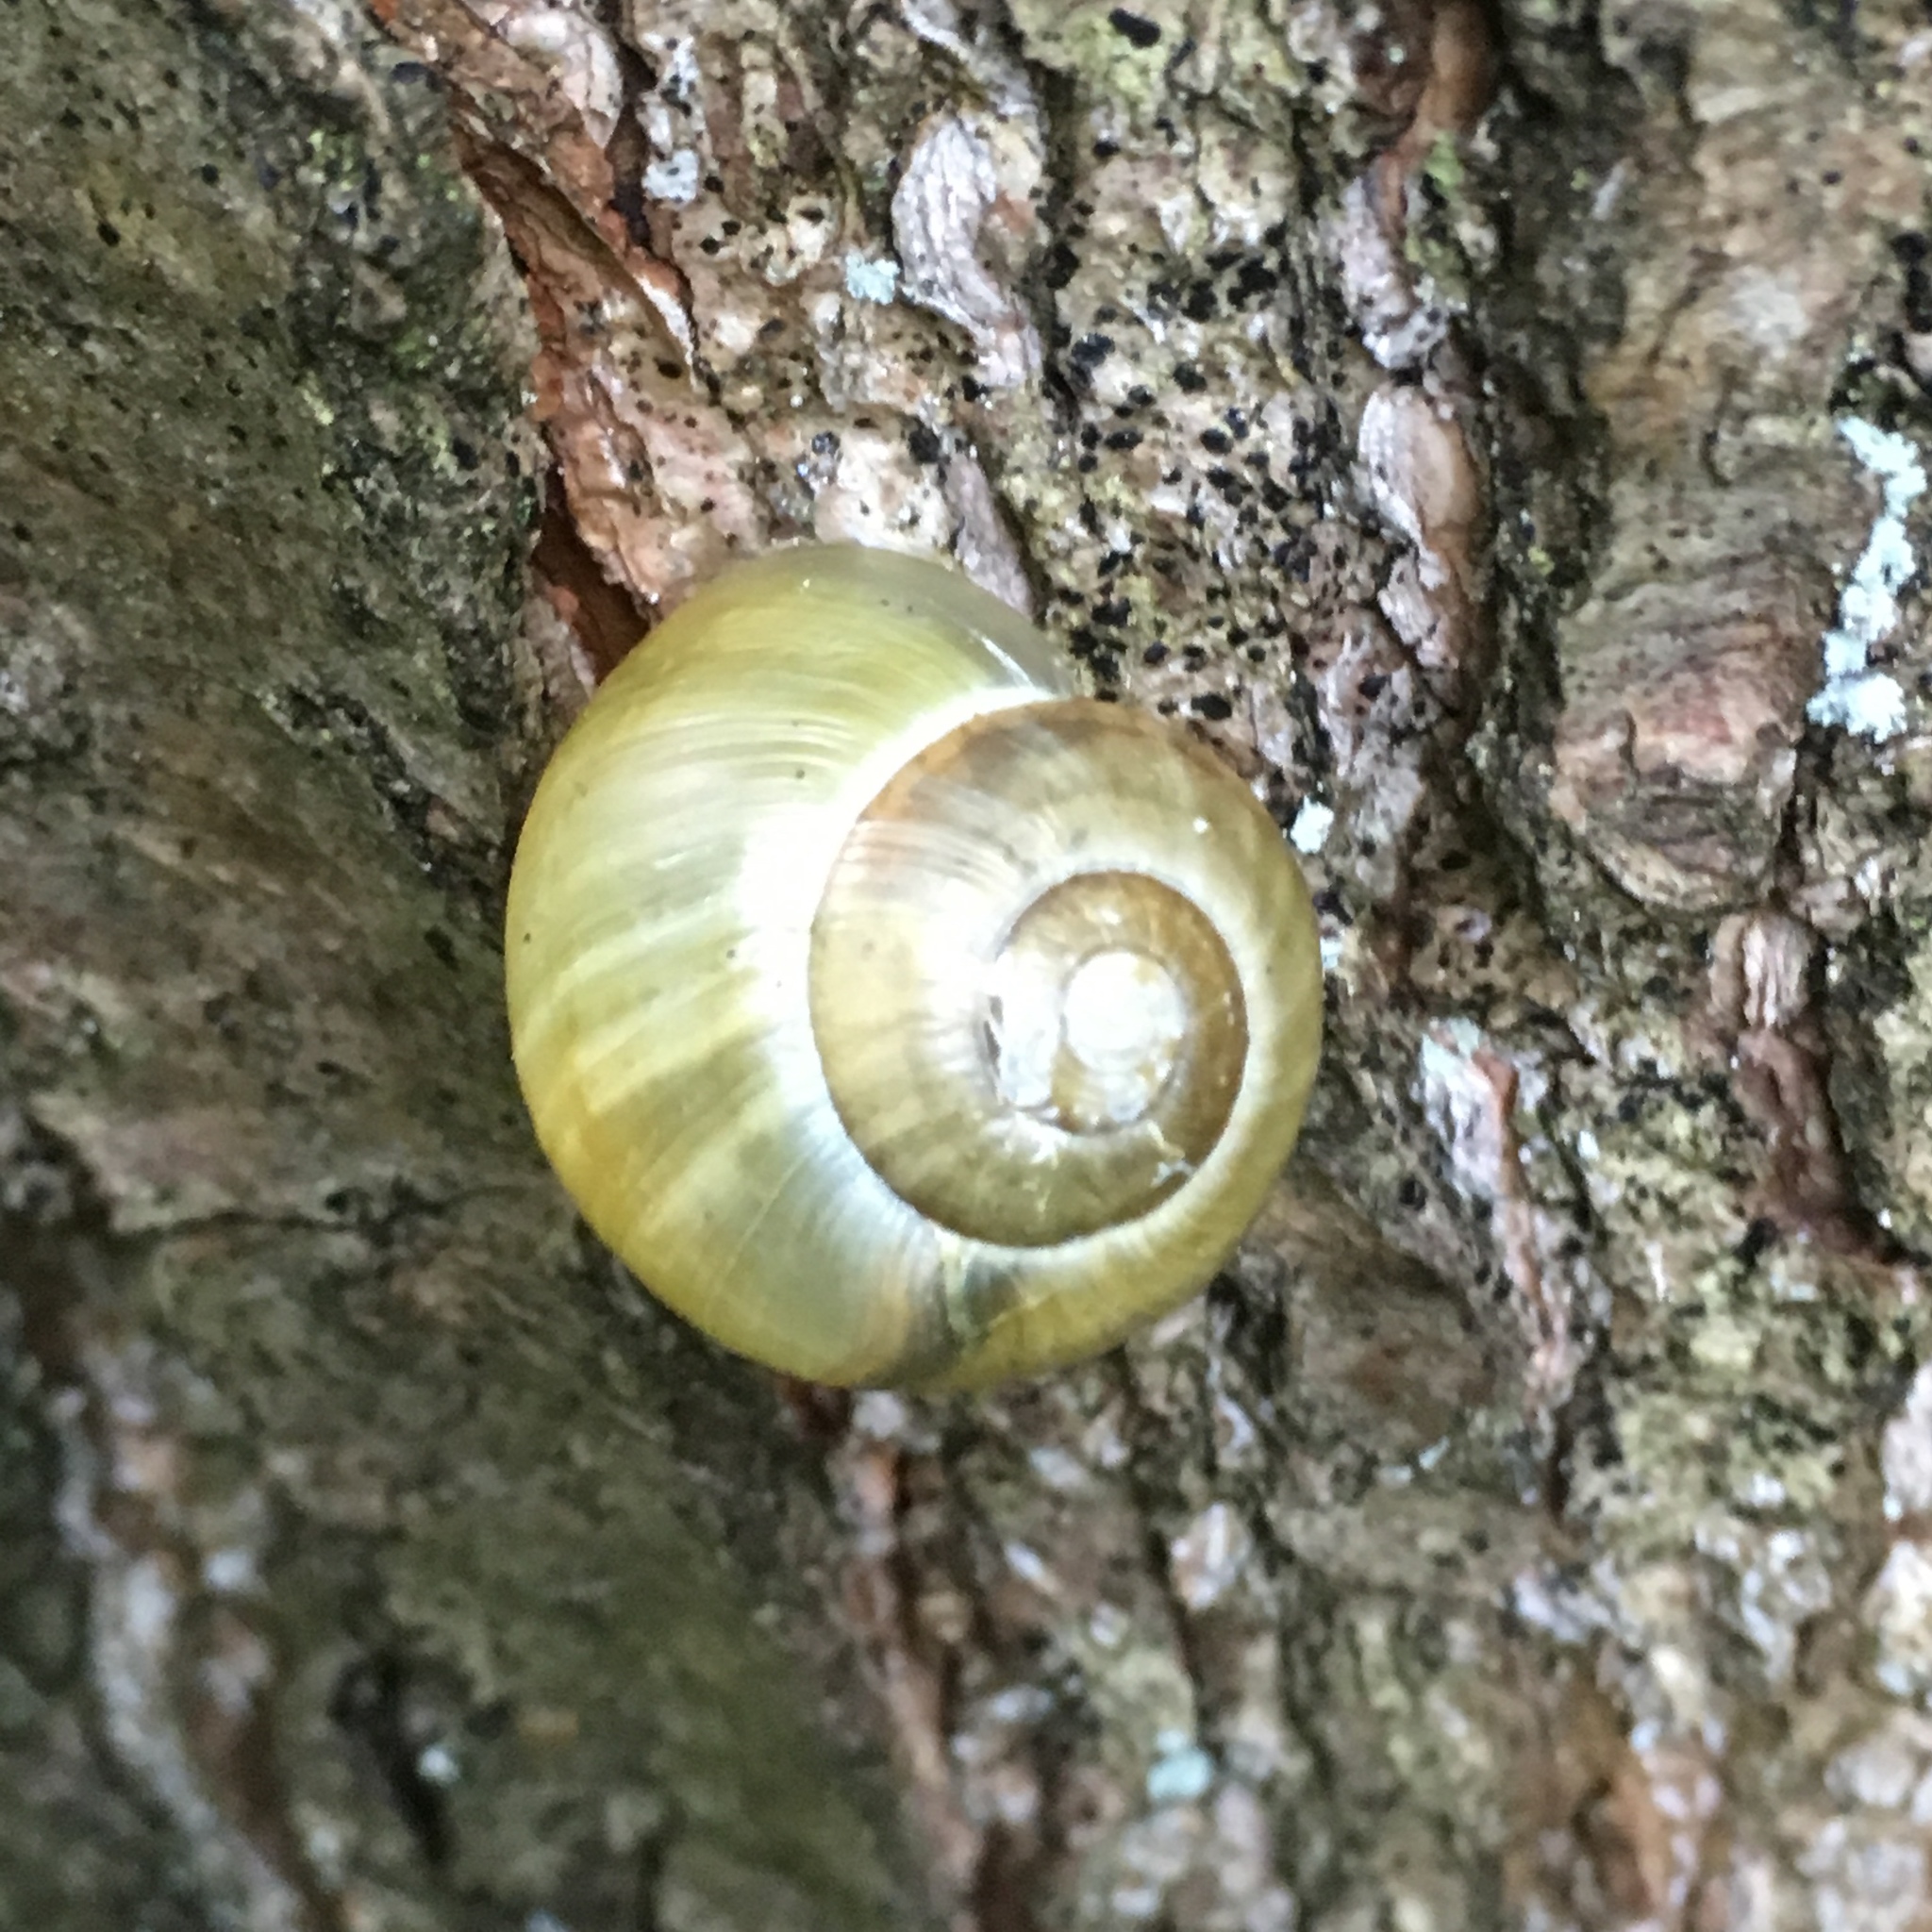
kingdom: Animalia
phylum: Mollusca
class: Gastropoda
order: Stylommatophora
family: Helicidae
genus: Cepaea
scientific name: Cepaea nemoralis
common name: Grovesnail
